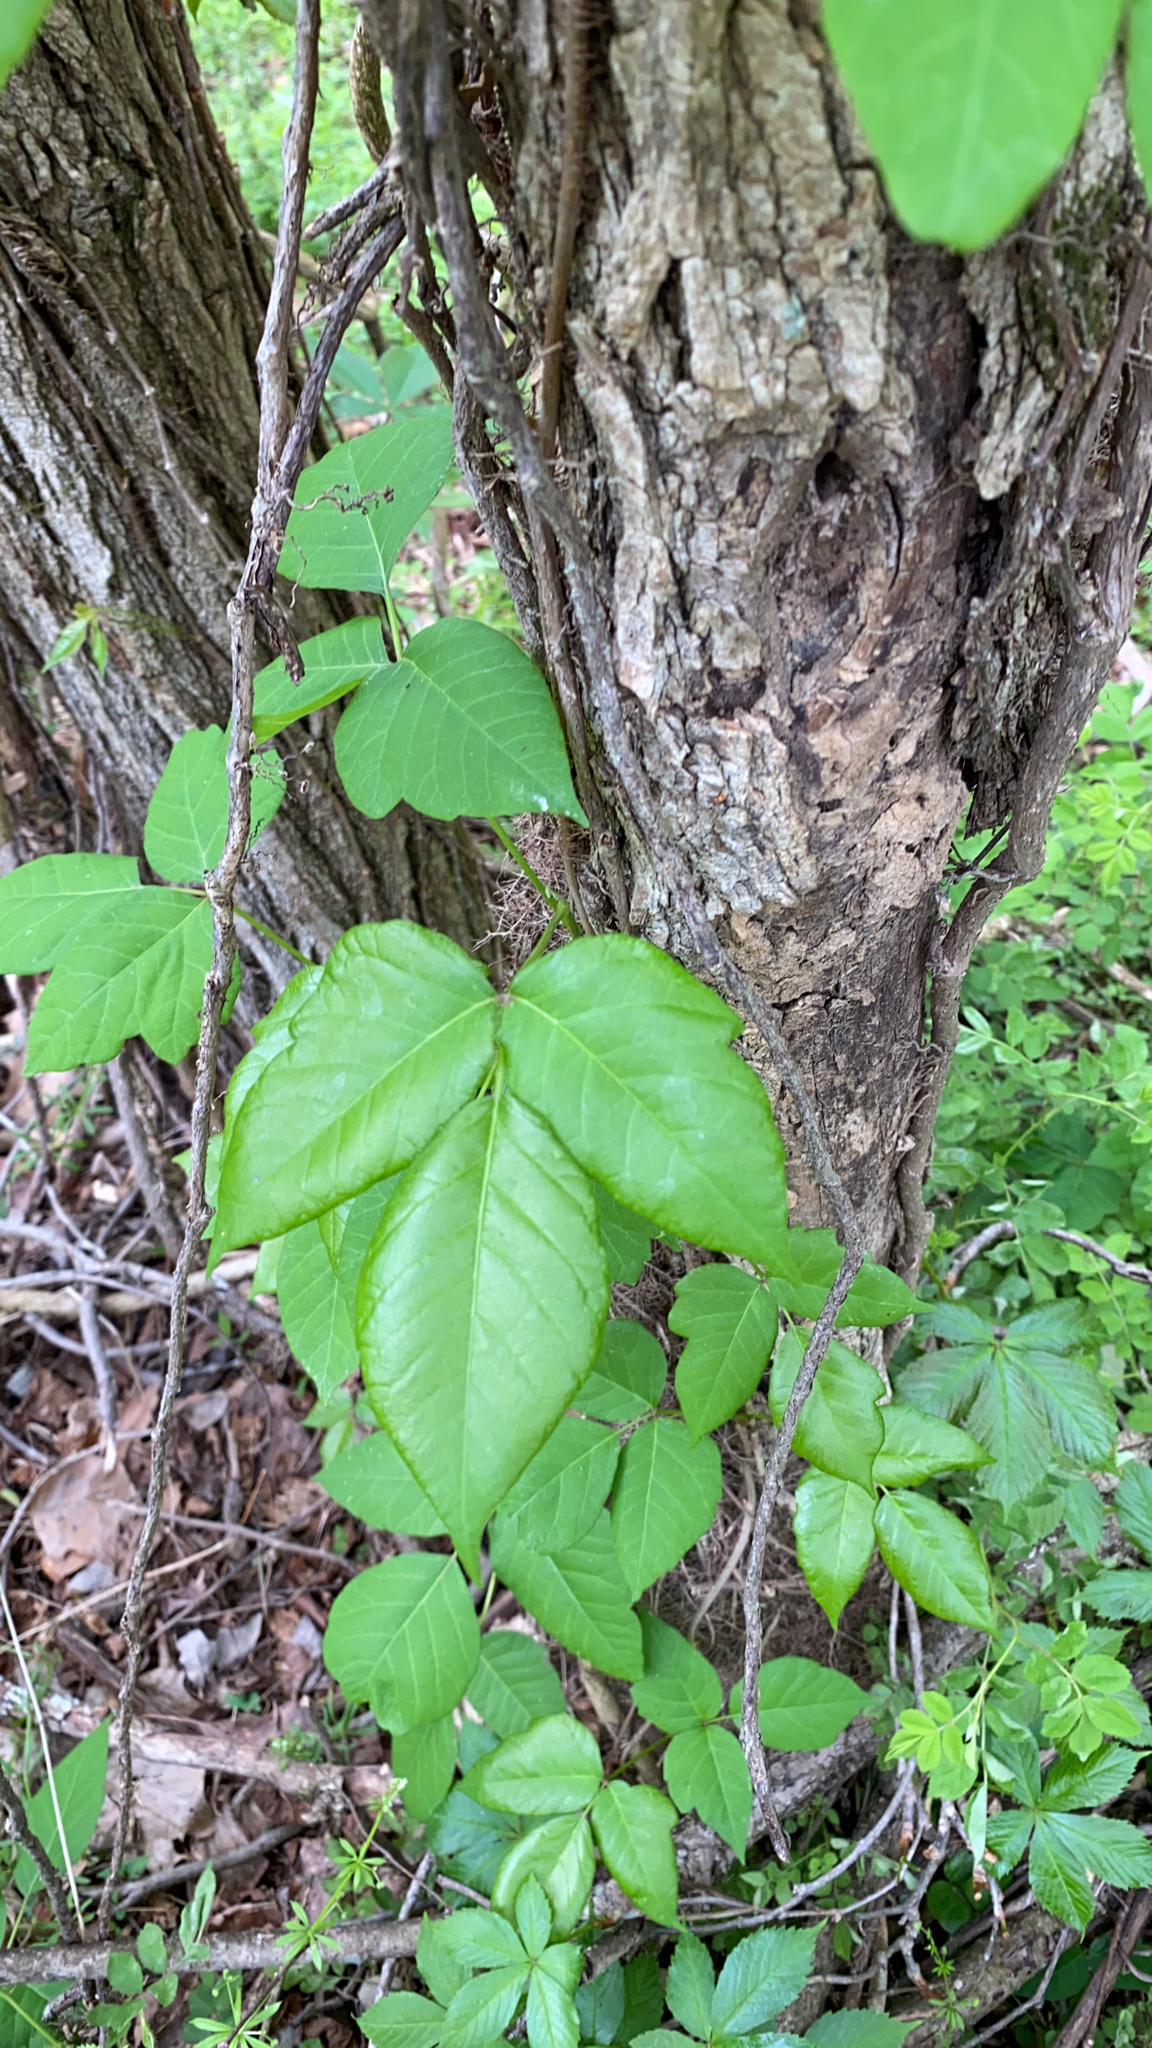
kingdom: Plantae
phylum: Tracheophyta
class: Magnoliopsida
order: Sapindales
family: Anacardiaceae
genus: Toxicodendron
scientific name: Toxicodendron radicans
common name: Poison ivy
